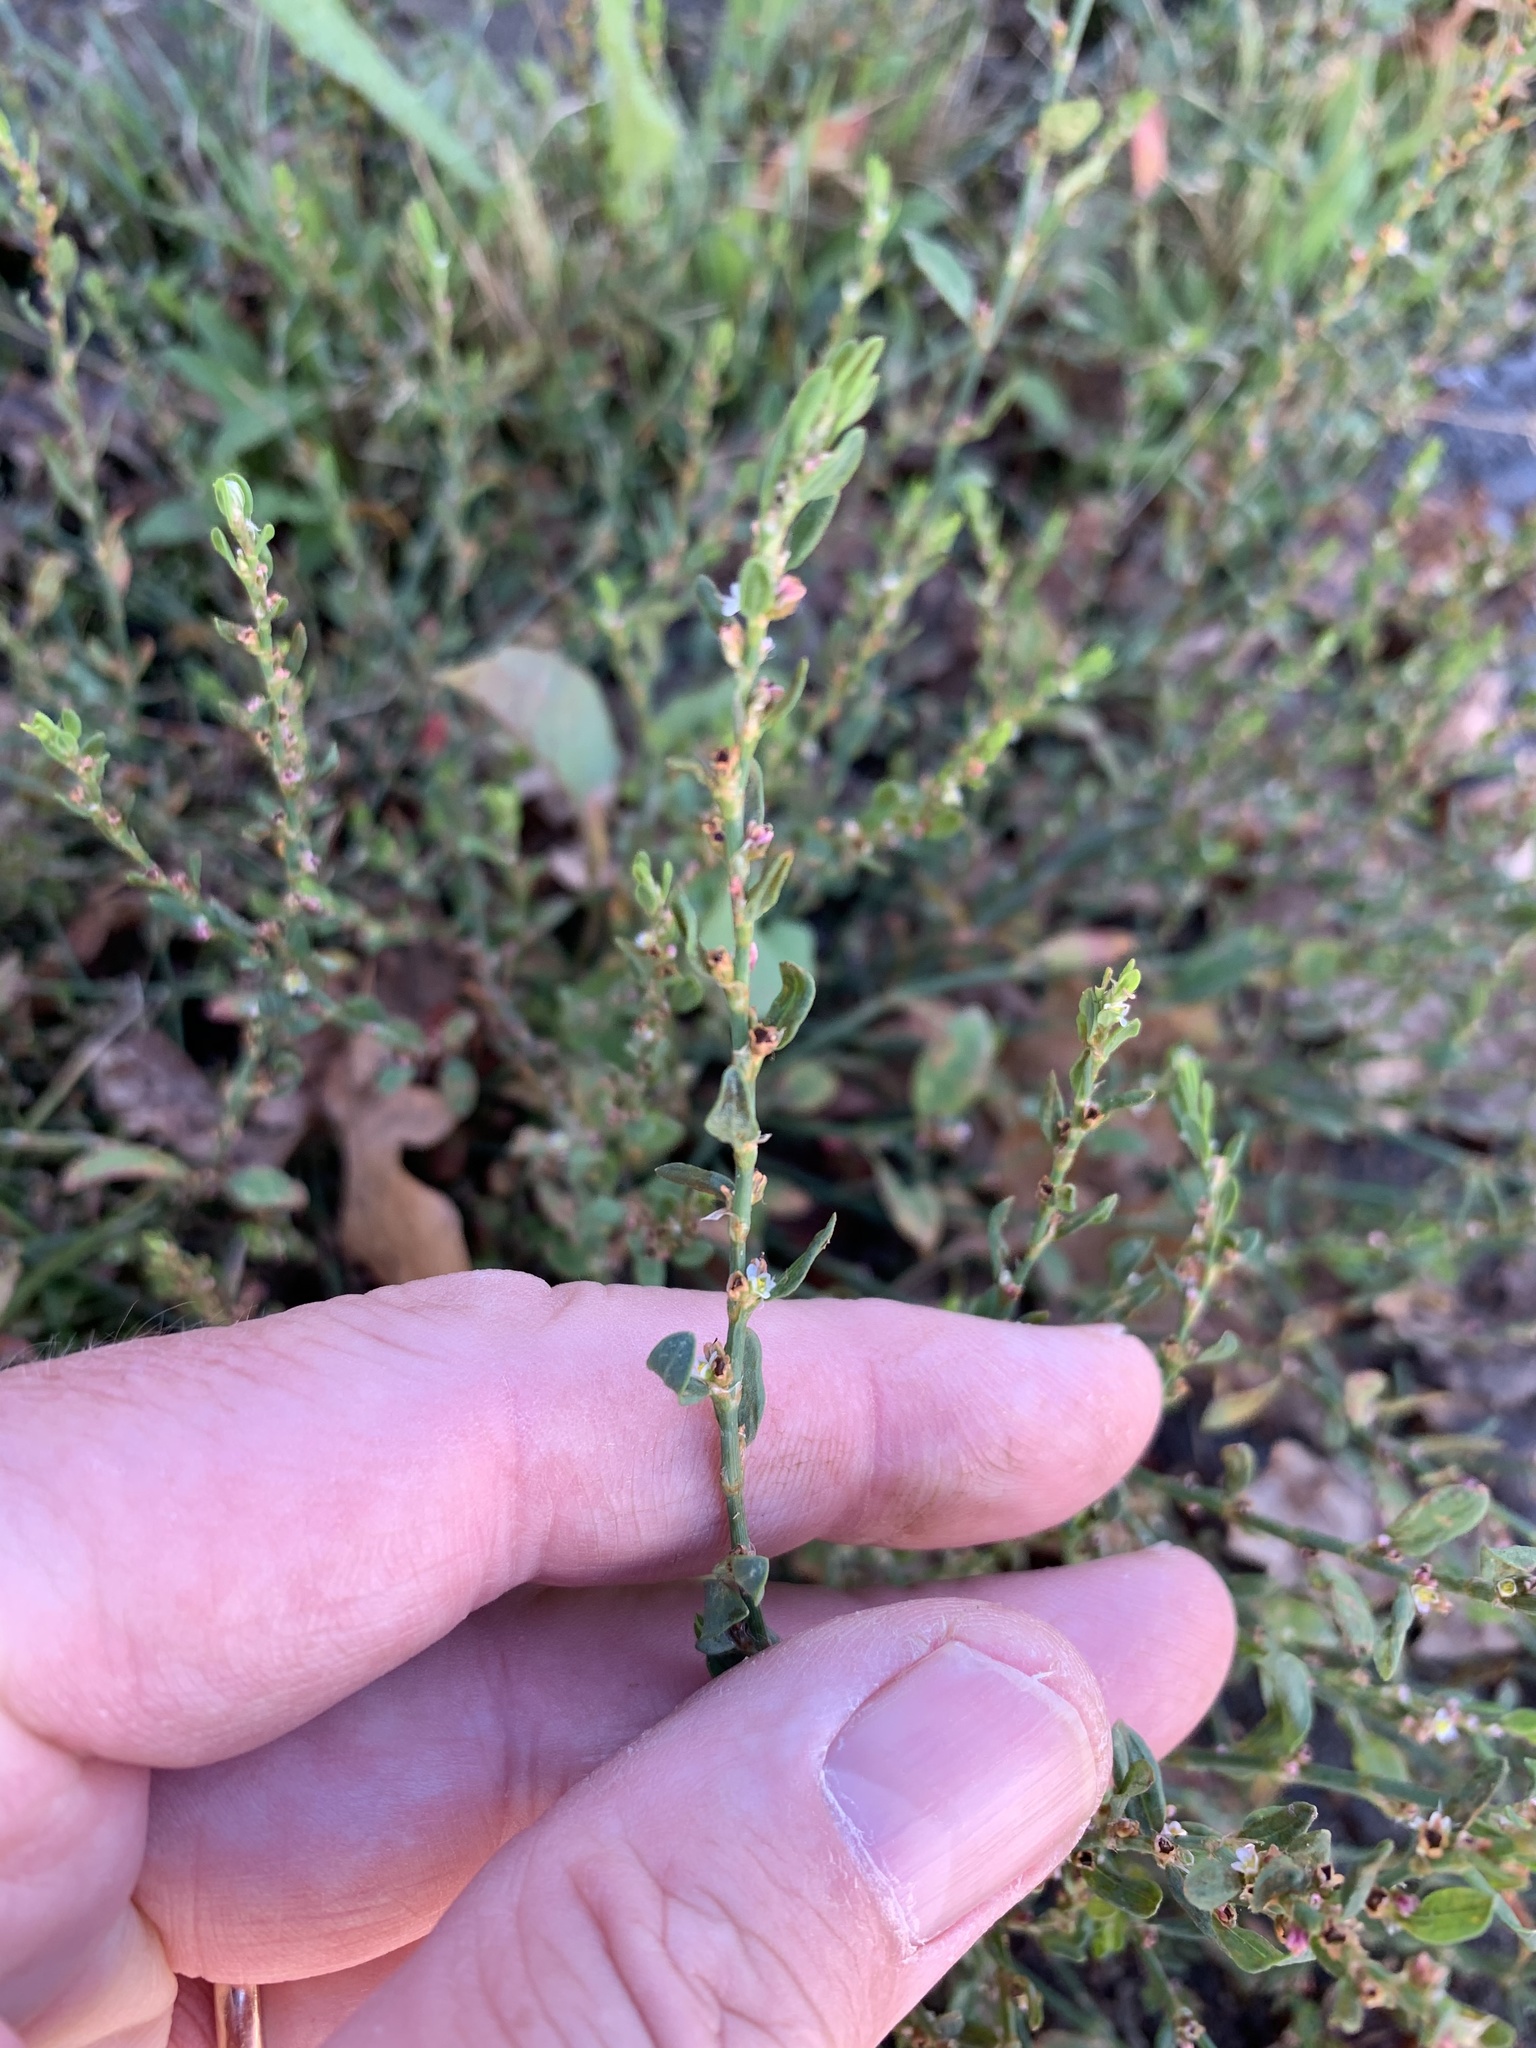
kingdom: Plantae
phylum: Tracheophyta
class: Magnoliopsida
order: Caryophyllales
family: Polygonaceae
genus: Polygonum
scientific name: Polygonum aviculare
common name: Prostrate knotweed
